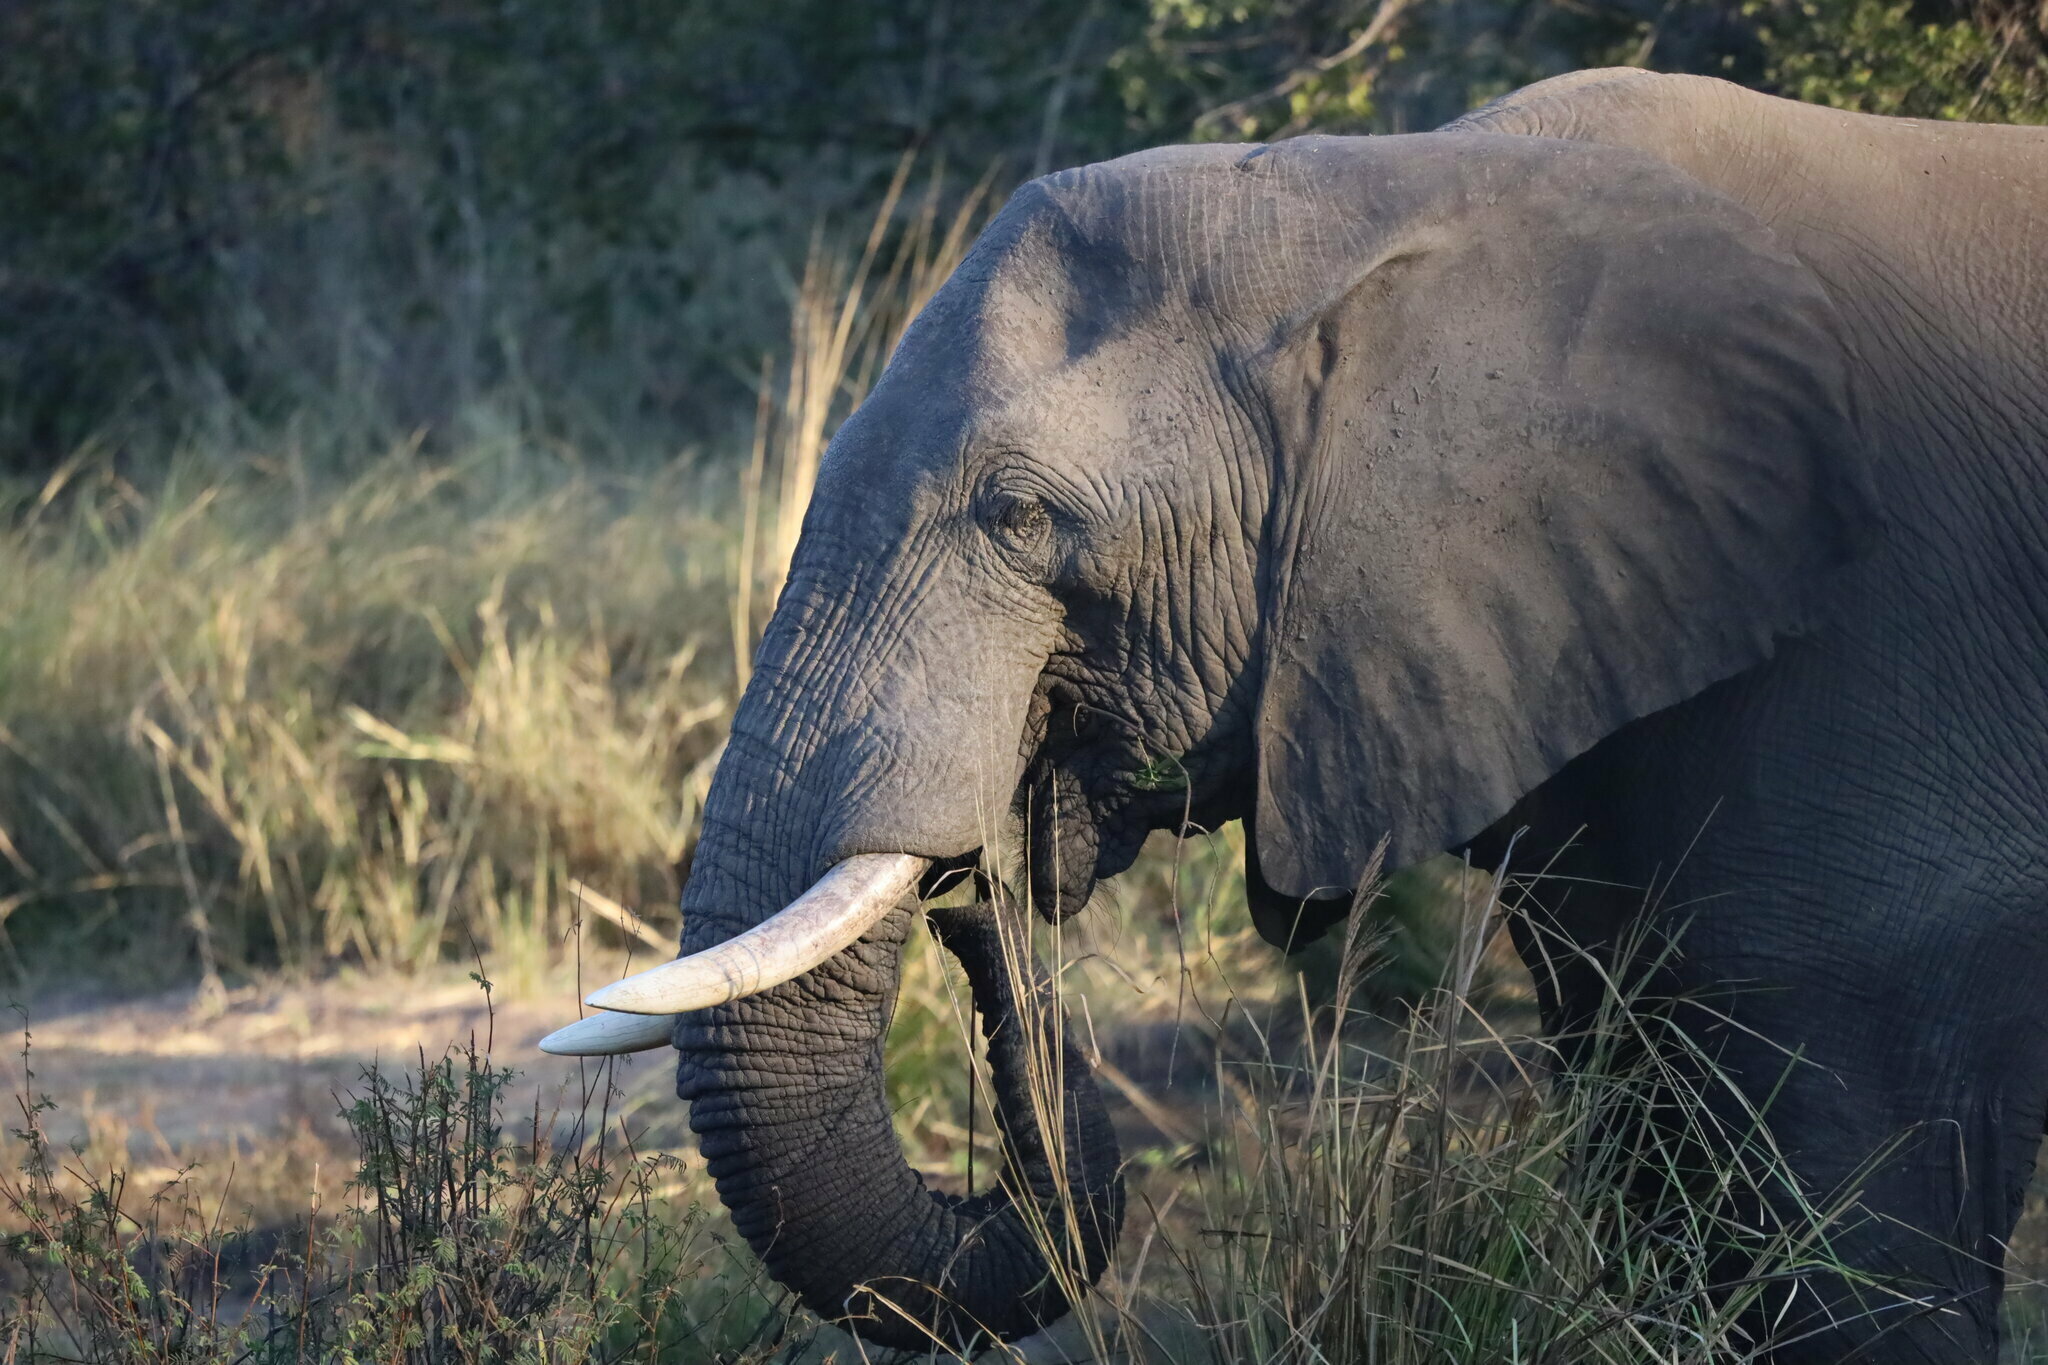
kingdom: Animalia
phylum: Chordata
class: Mammalia
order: Proboscidea
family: Elephantidae
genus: Loxodonta
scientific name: Loxodonta africana
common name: African elephant
